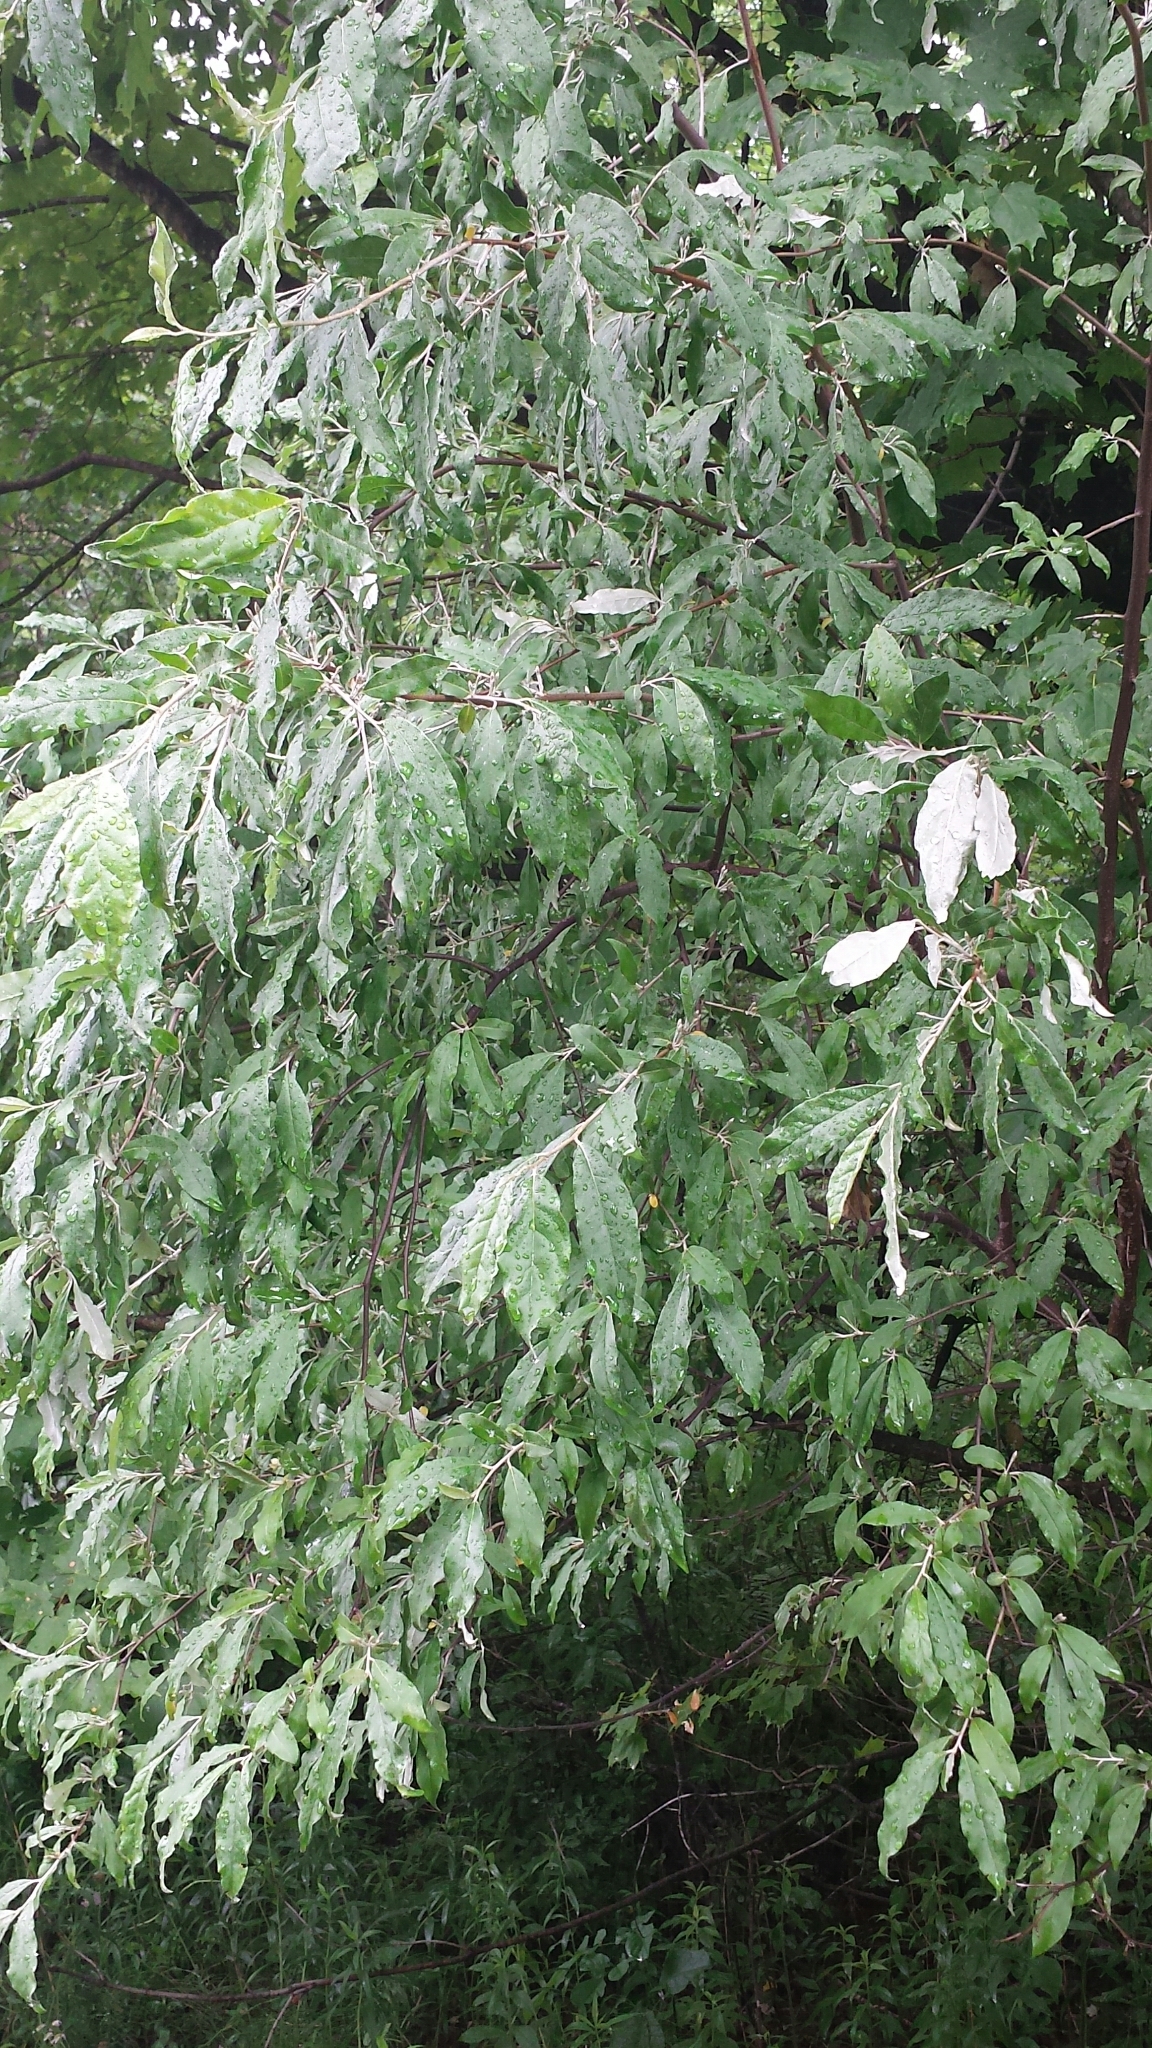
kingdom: Plantae
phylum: Tracheophyta
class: Magnoliopsida
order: Rosales
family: Elaeagnaceae
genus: Elaeagnus
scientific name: Elaeagnus umbellata
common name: Autumn olive
